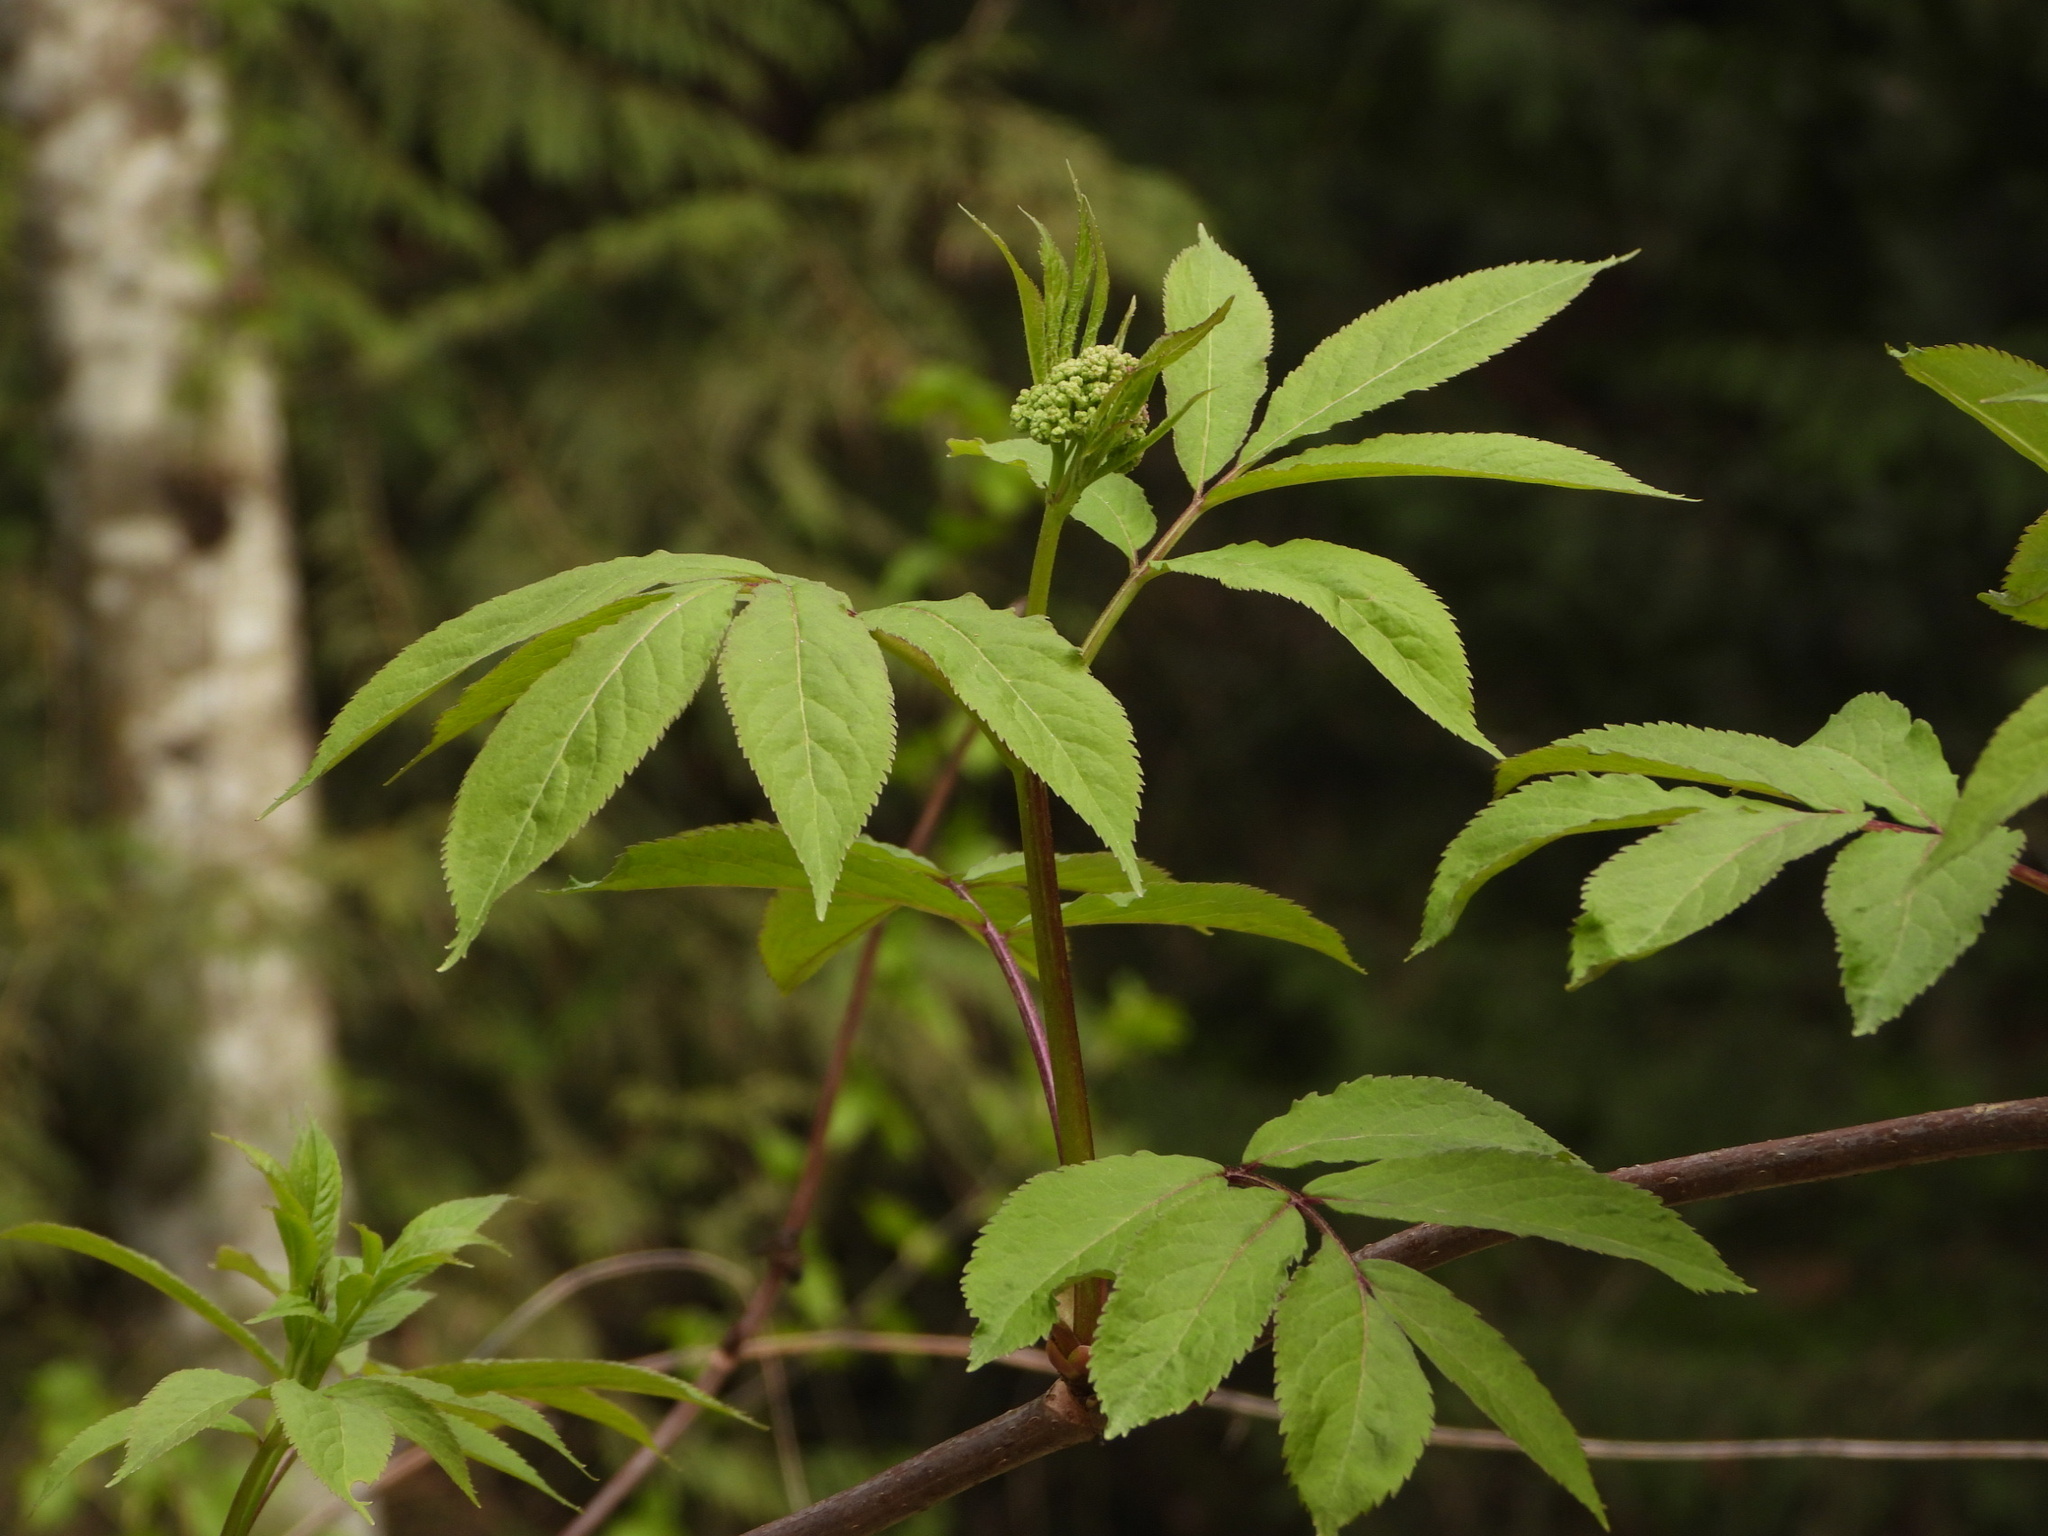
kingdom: Plantae
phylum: Tracheophyta
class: Magnoliopsida
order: Dipsacales
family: Viburnaceae
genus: Sambucus
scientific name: Sambucus racemosa
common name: Red-berried elder
